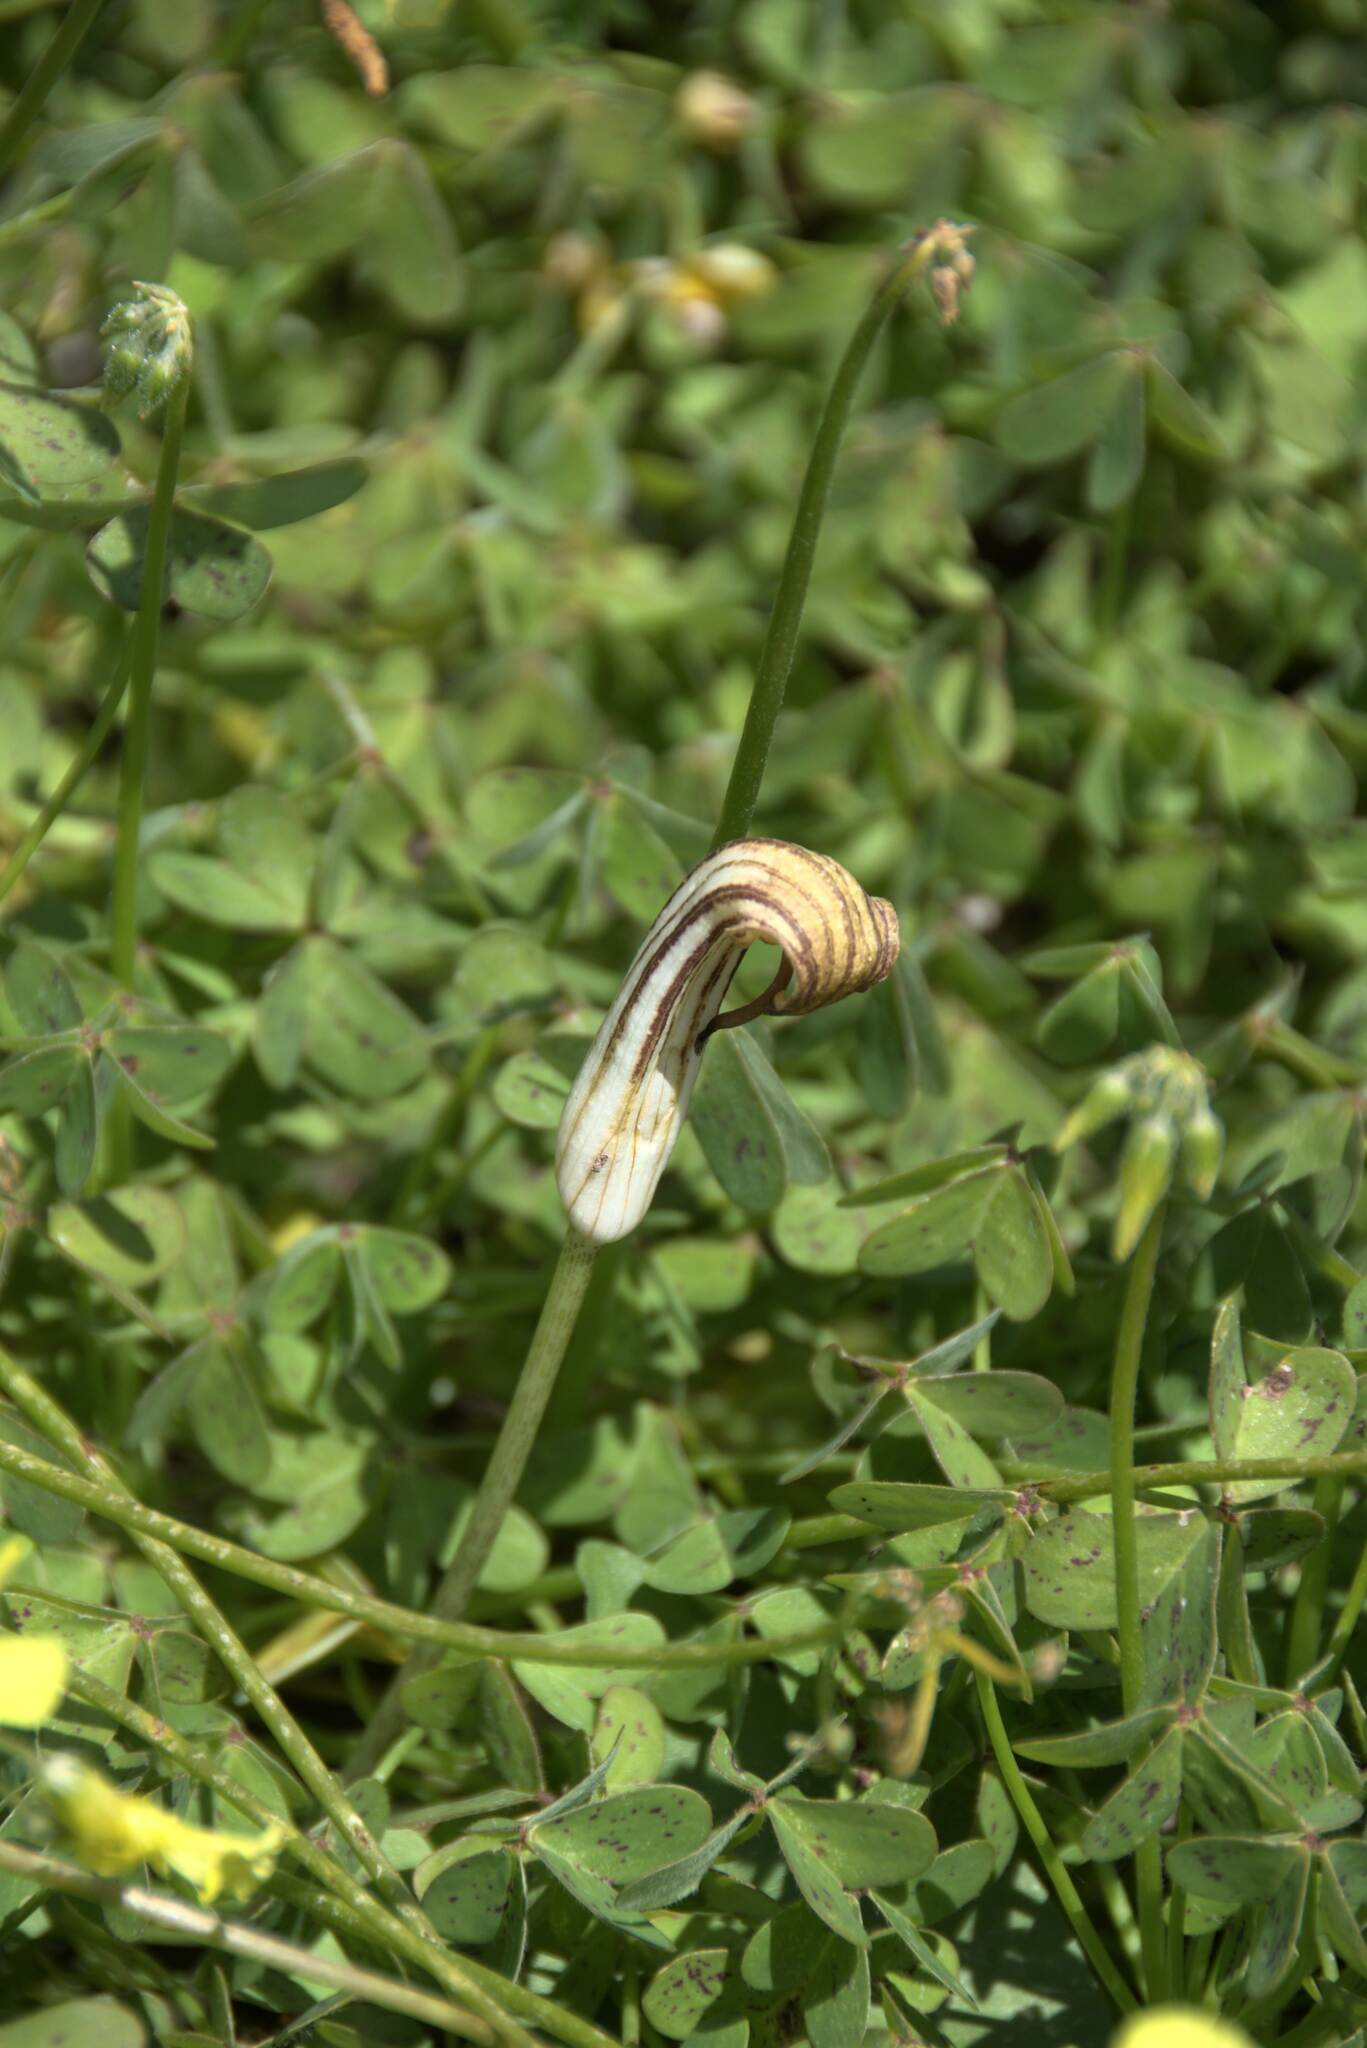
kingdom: Plantae
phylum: Tracheophyta
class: Liliopsida
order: Alismatales
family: Araceae
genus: Arisarum
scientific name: Arisarum vulgare
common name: Common arisarum
